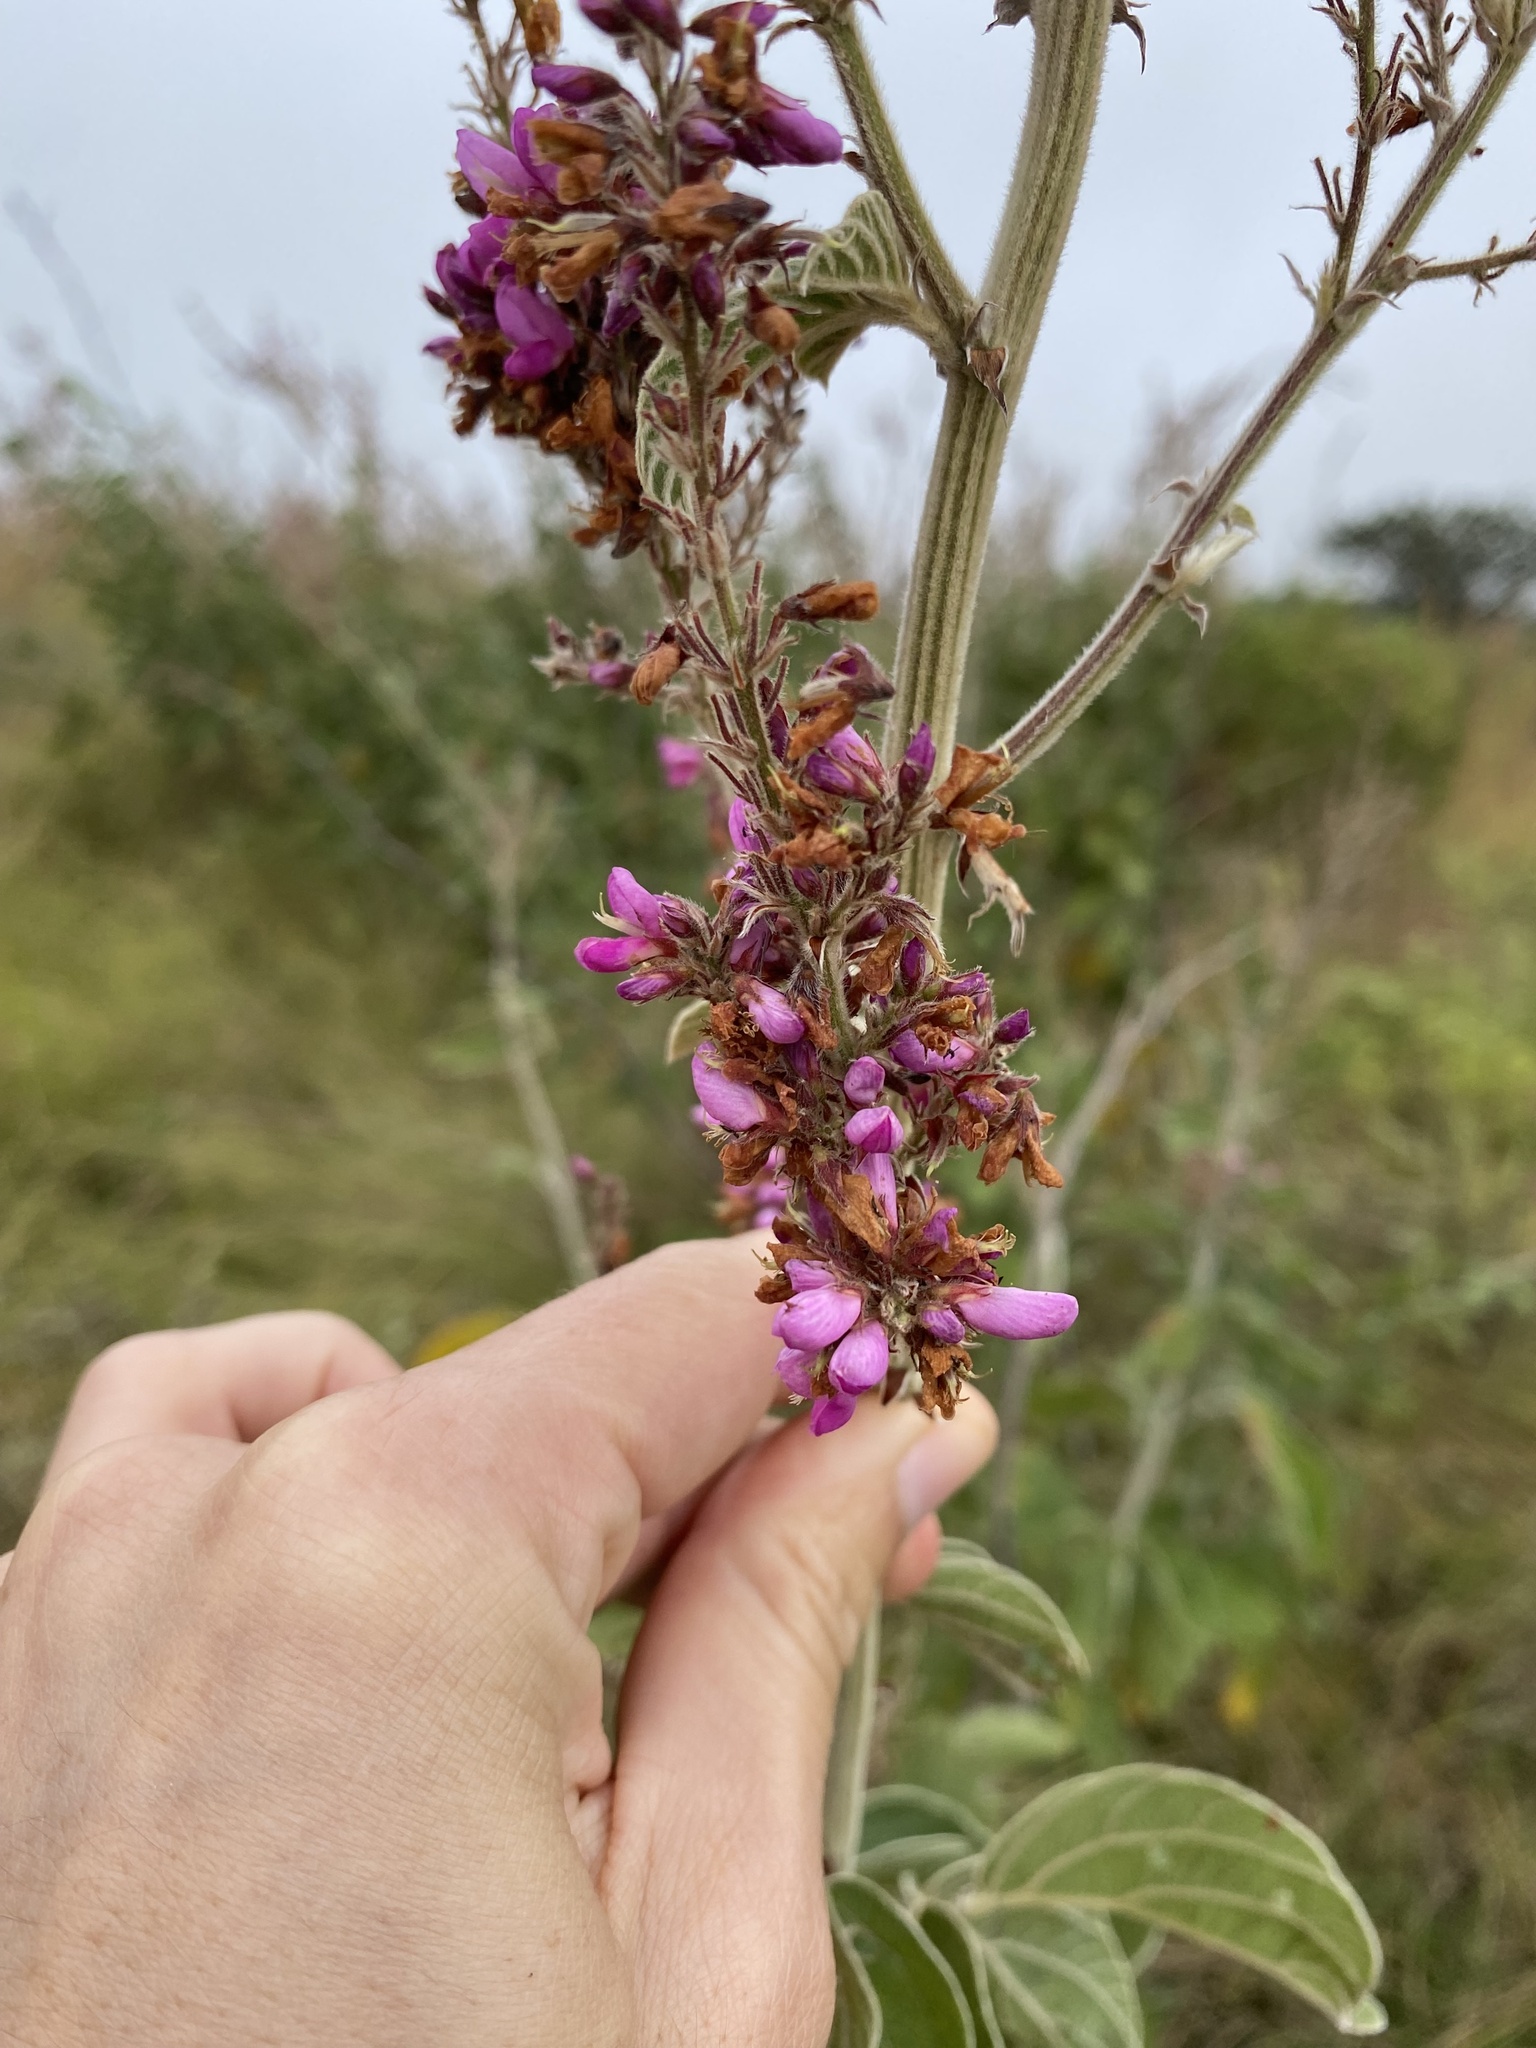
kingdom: Plantae
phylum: Tracheophyta
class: Magnoliopsida
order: Fabales
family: Fabaceae
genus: Pseudarthria
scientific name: Pseudarthria hookeri
